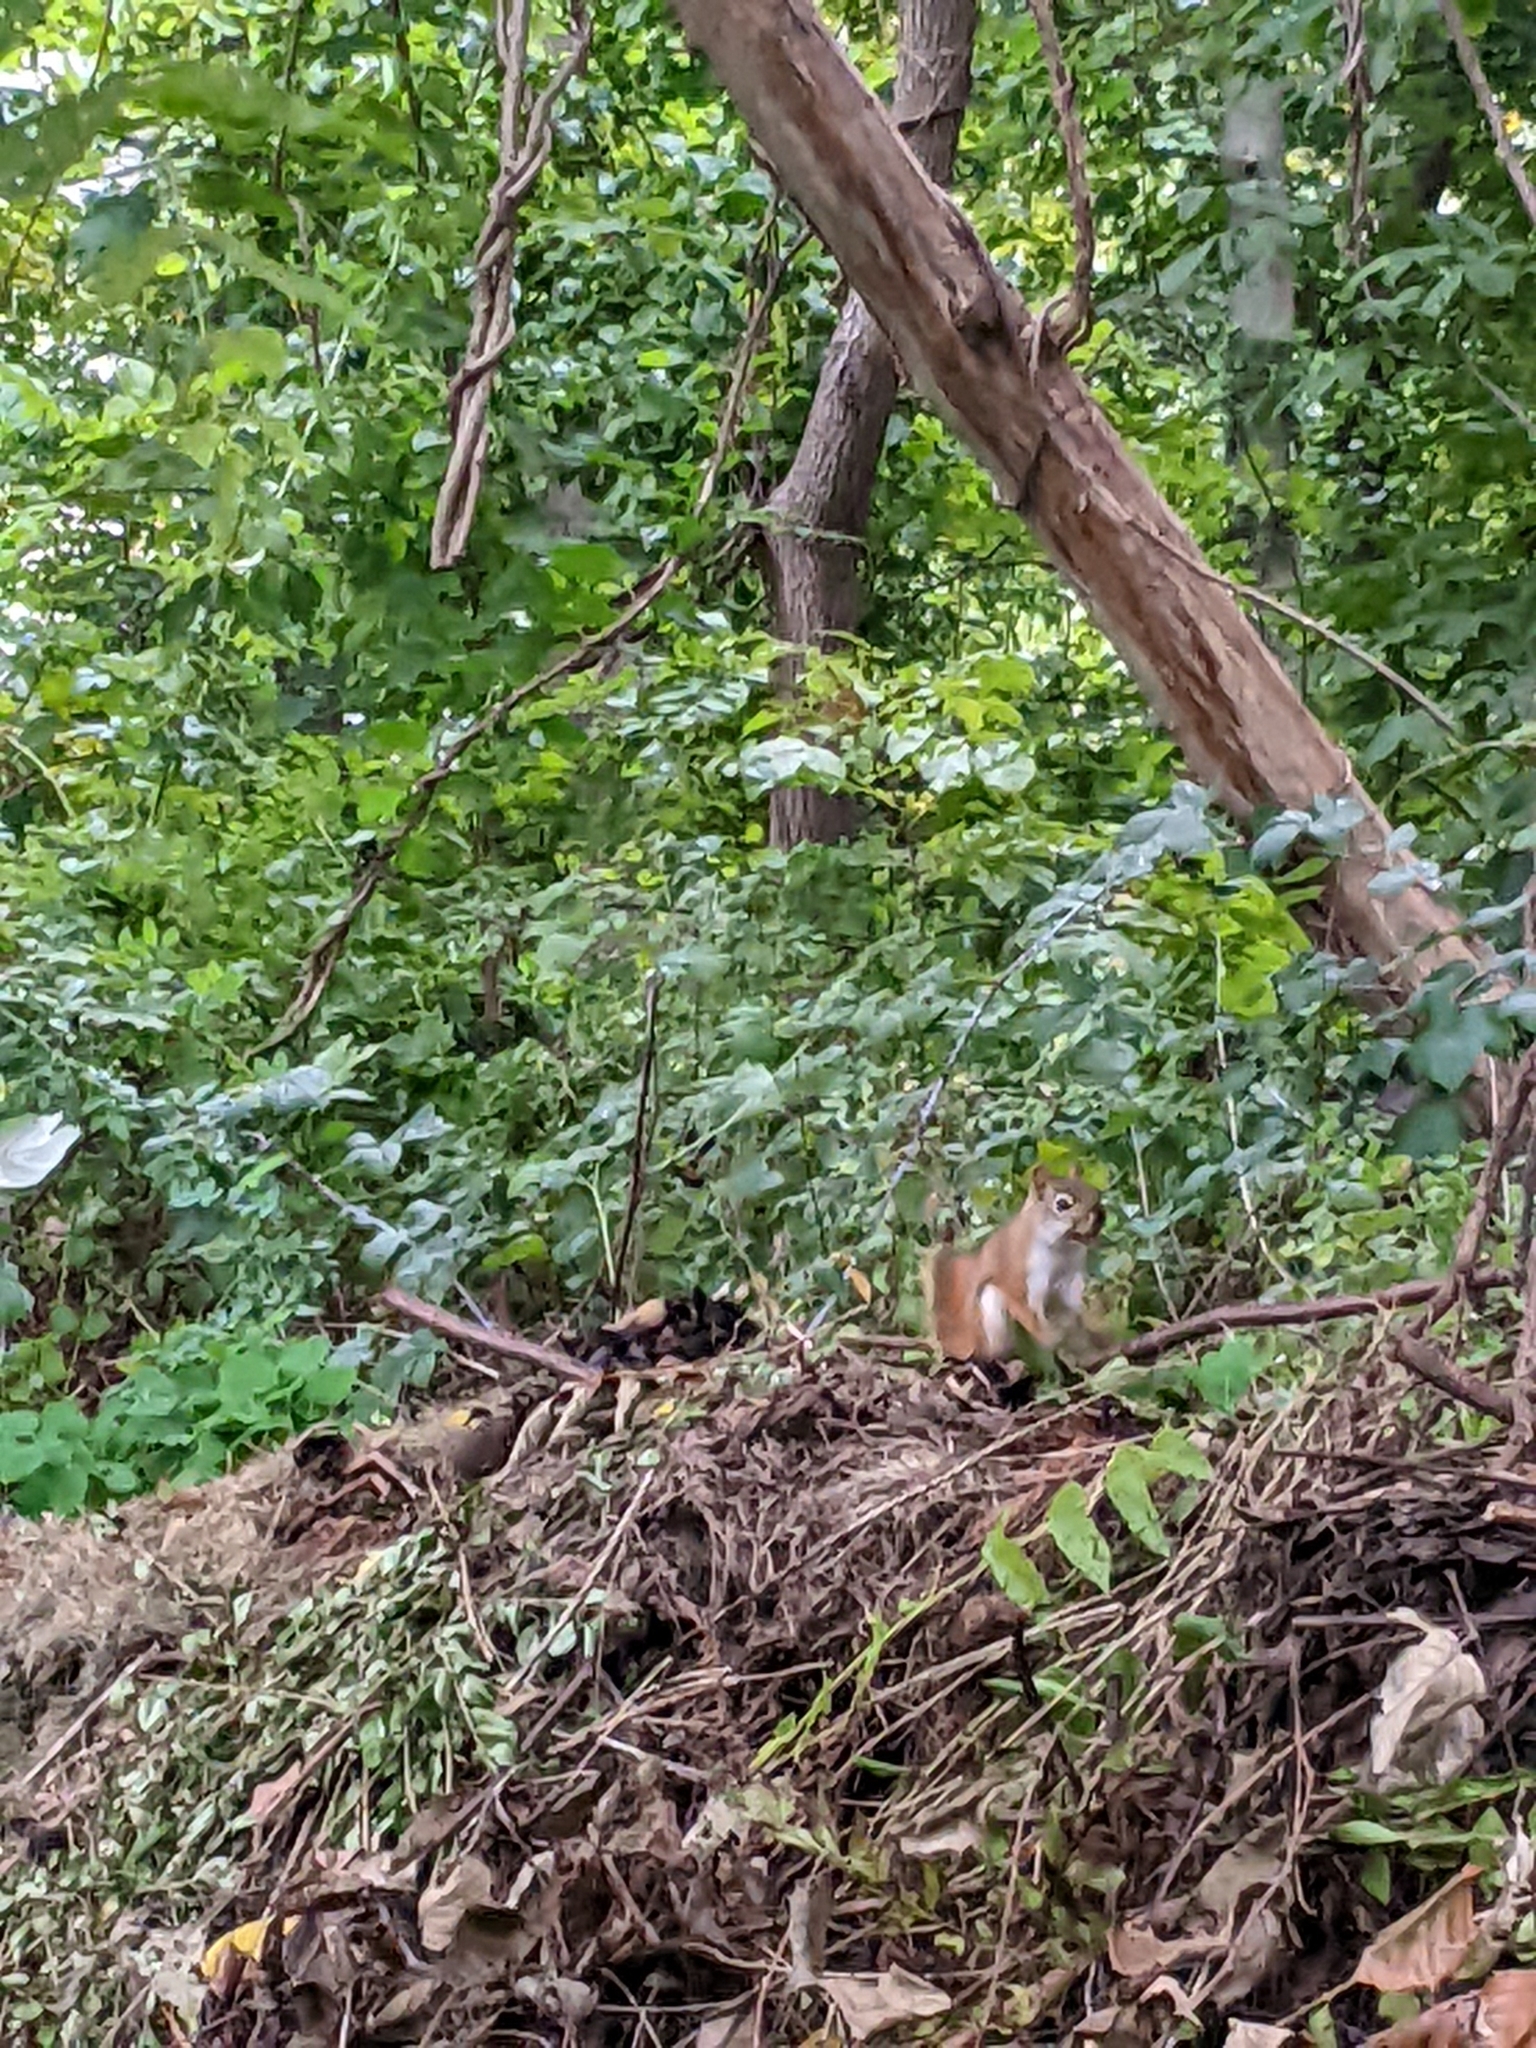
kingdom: Animalia
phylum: Chordata
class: Mammalia
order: Rodentia
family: Sciuridae
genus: Tamiasciurus
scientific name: Tamiasciurus hudsonicus
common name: Red squirrel
